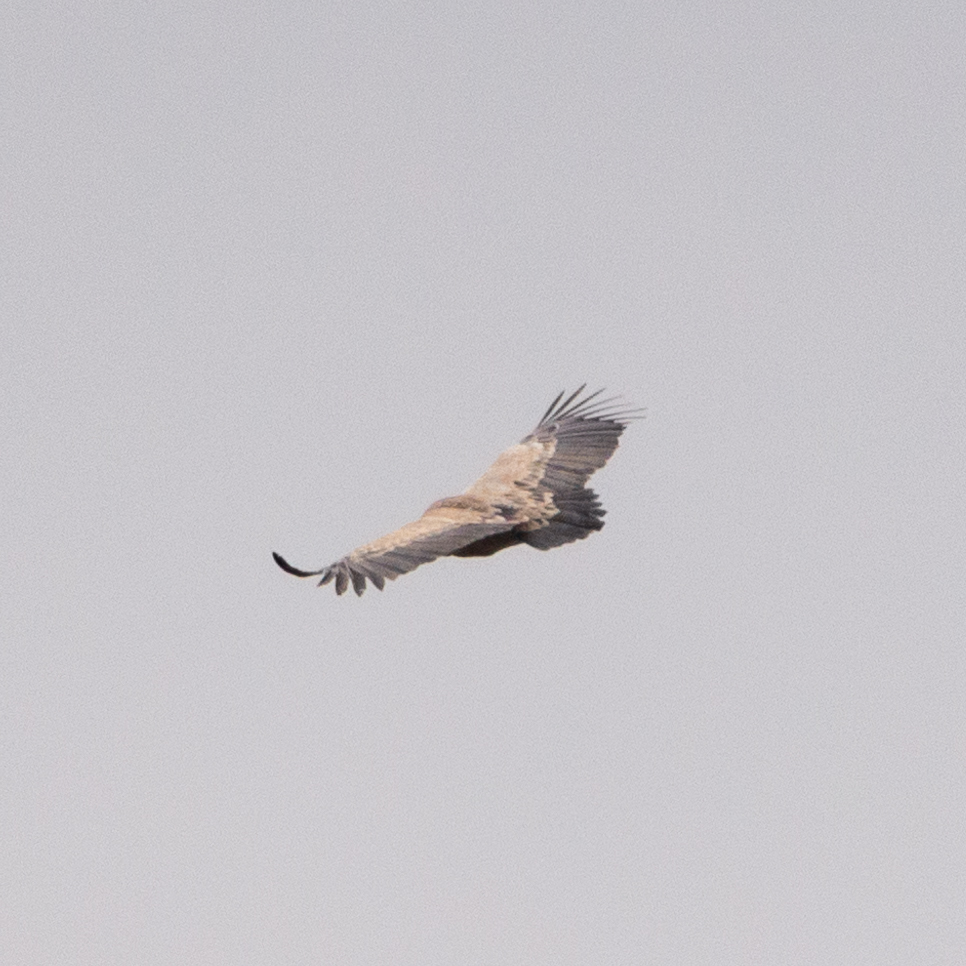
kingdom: Animalia
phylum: Chordata
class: Aves
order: Accipitriformes
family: Accipitridae
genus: Gyps
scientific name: Gyps fulvus
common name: Griffon vulture
